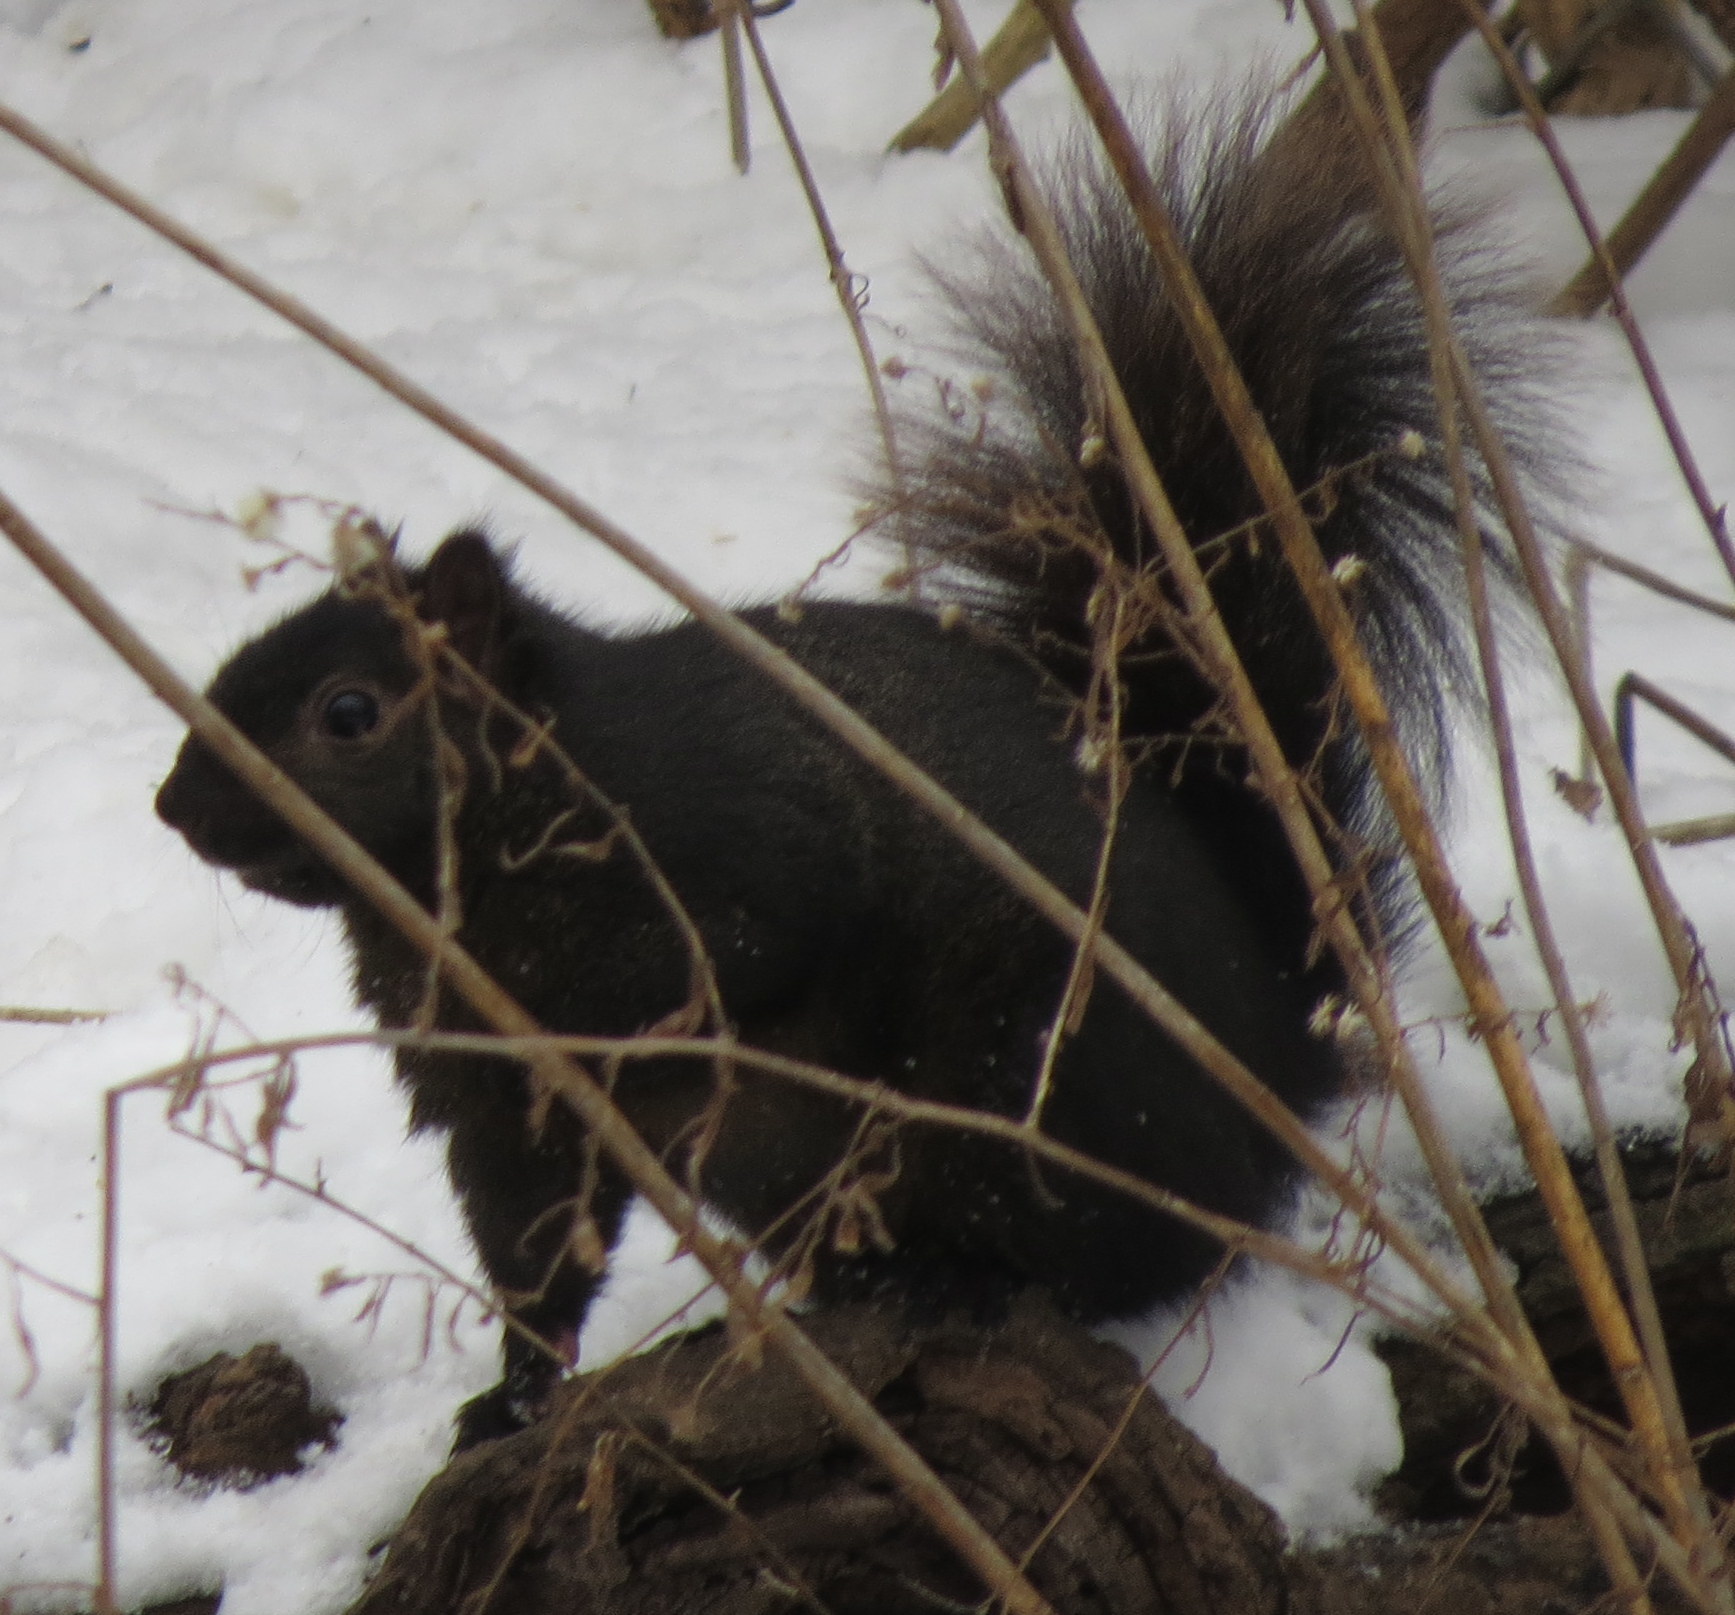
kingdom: Animalia
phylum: Chordata
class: Mammalia
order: Rodentia
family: Sciuridae
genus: Sciurus
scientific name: Sciurus carolinensis
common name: Eastern gray squirrel
